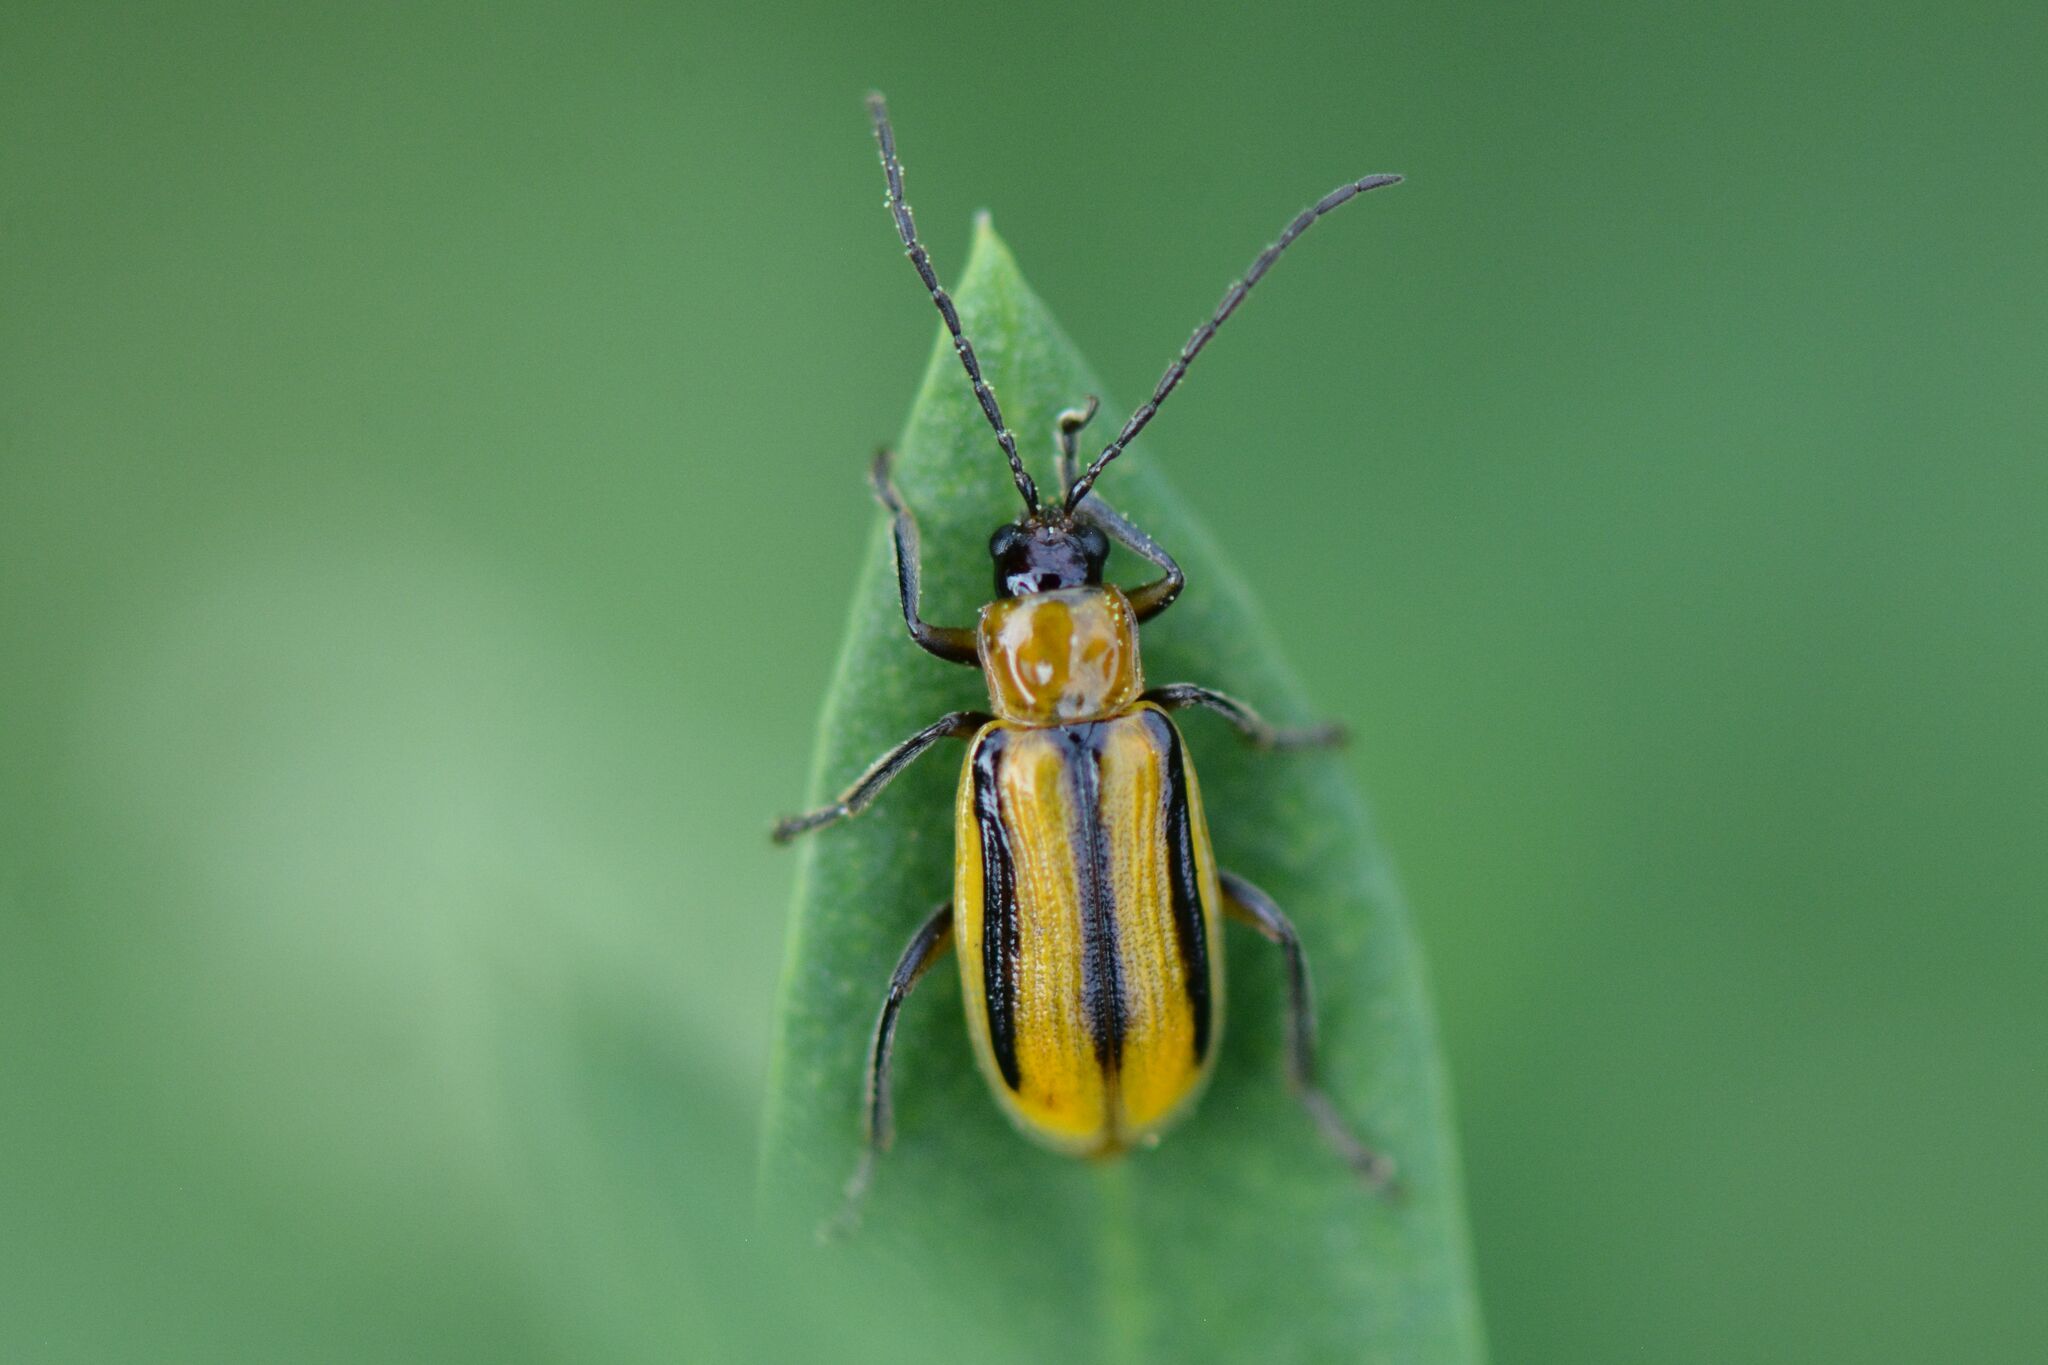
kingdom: Animalia
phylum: Arthropoda
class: Insecta
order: Coleoptera
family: Chrysomelidae
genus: Diabrotica
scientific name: Diabrotica virgifera
